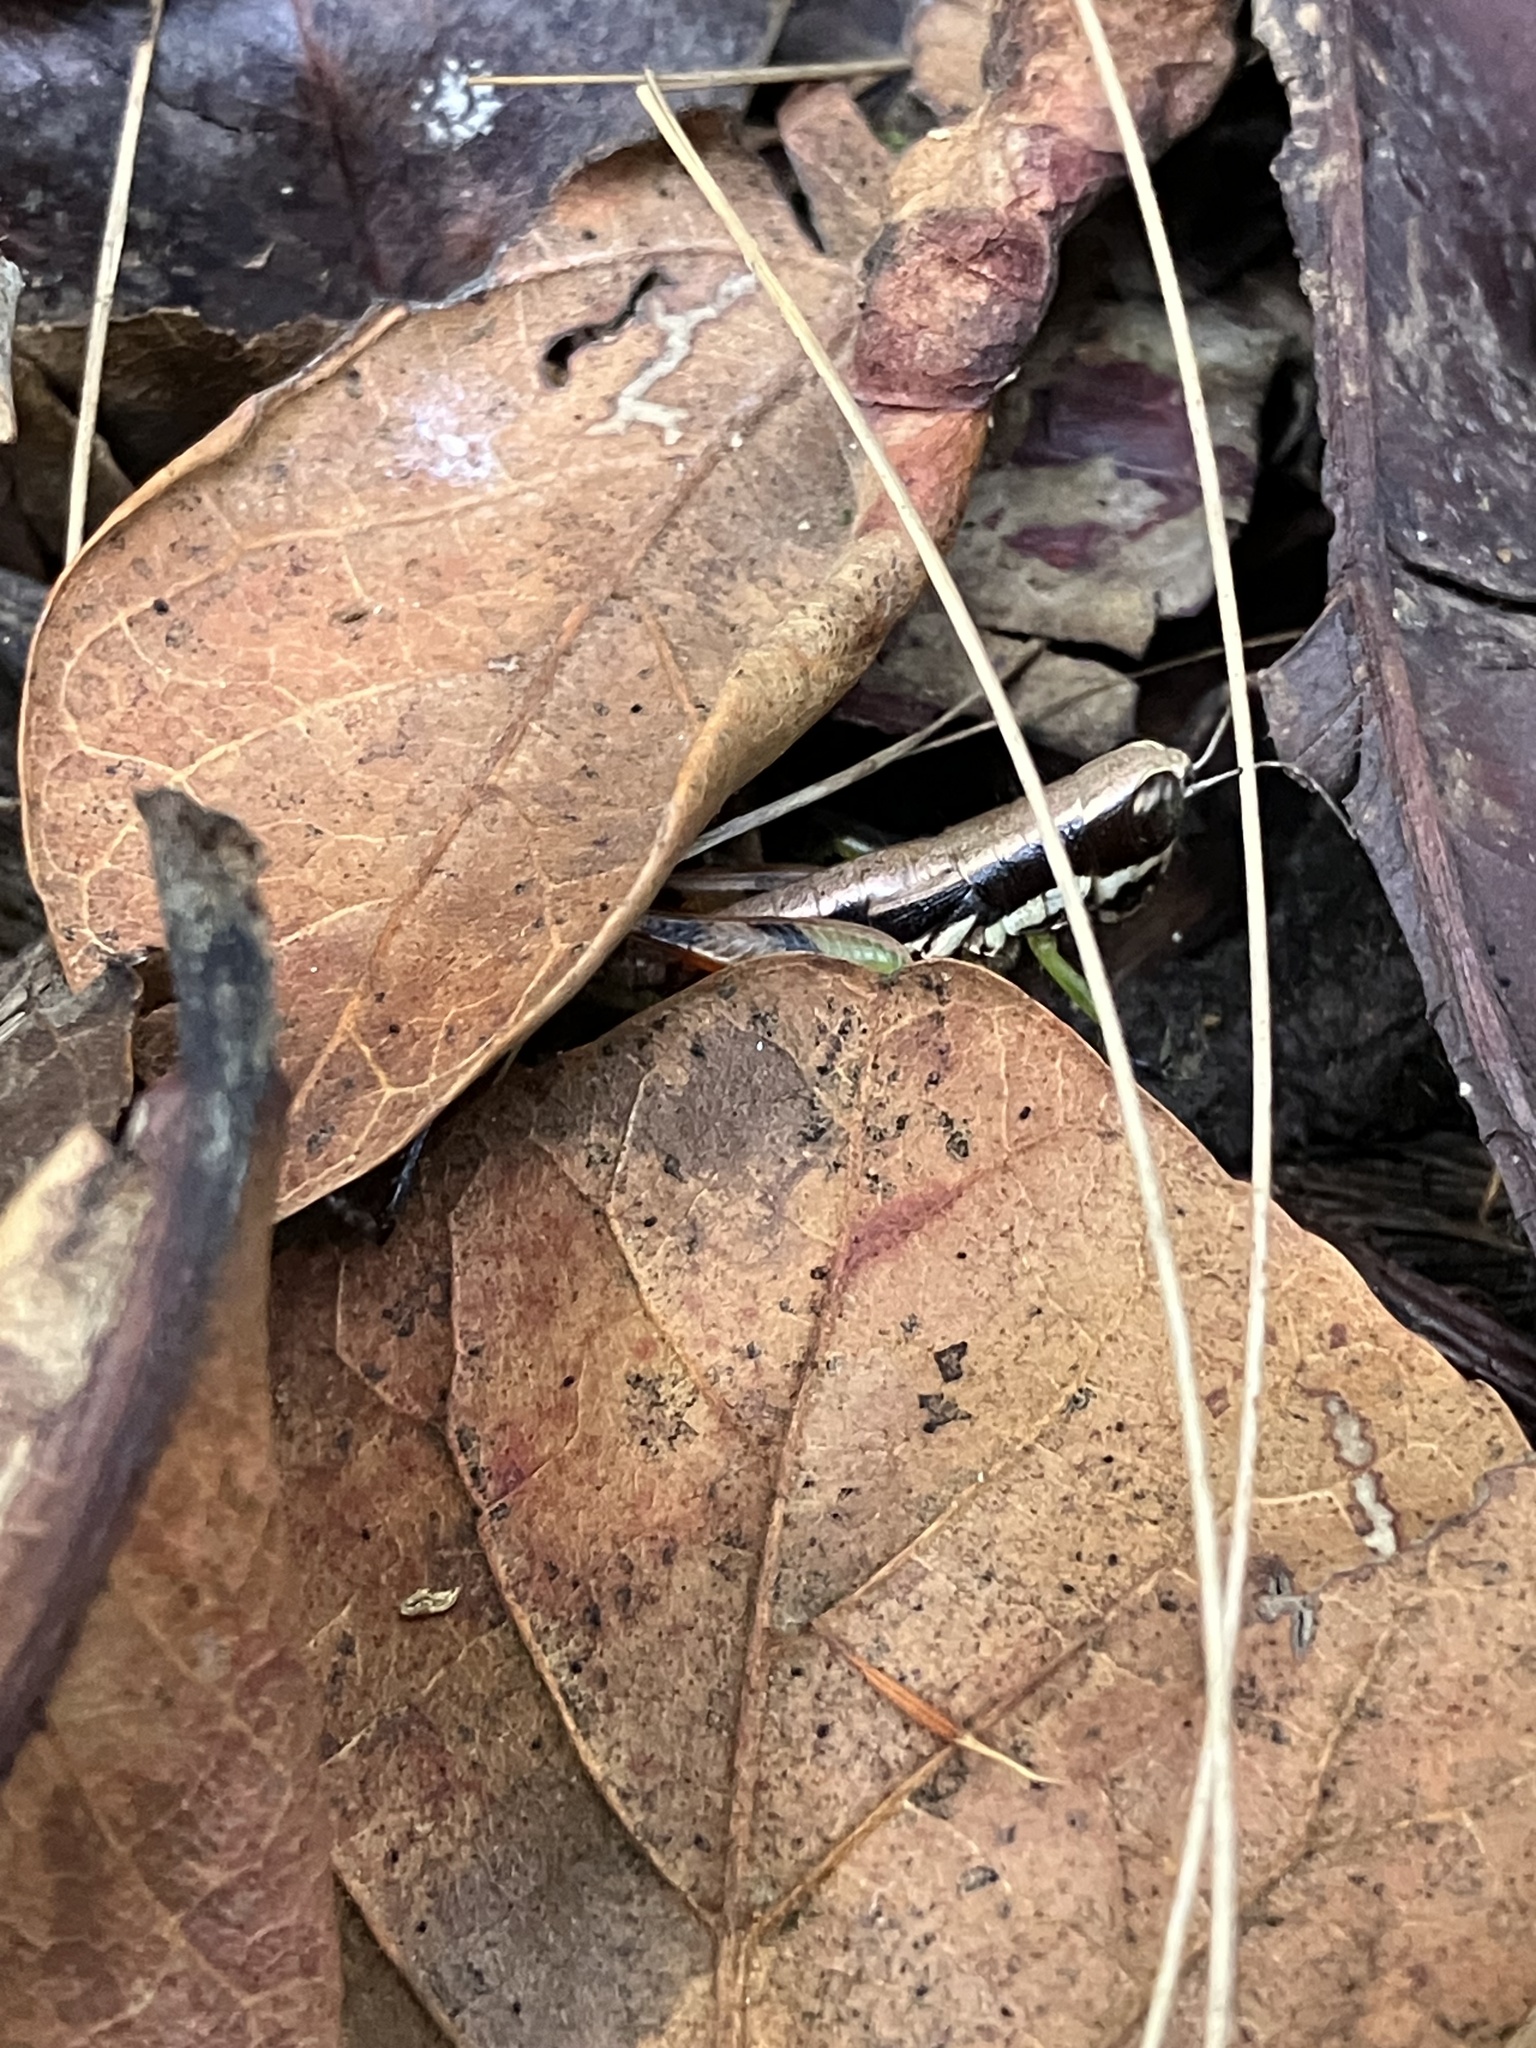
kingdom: Animalia
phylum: Arthropoda
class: Insecta
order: Orthoptera
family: Acrididae
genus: Chitaura
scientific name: Chitaura indica
